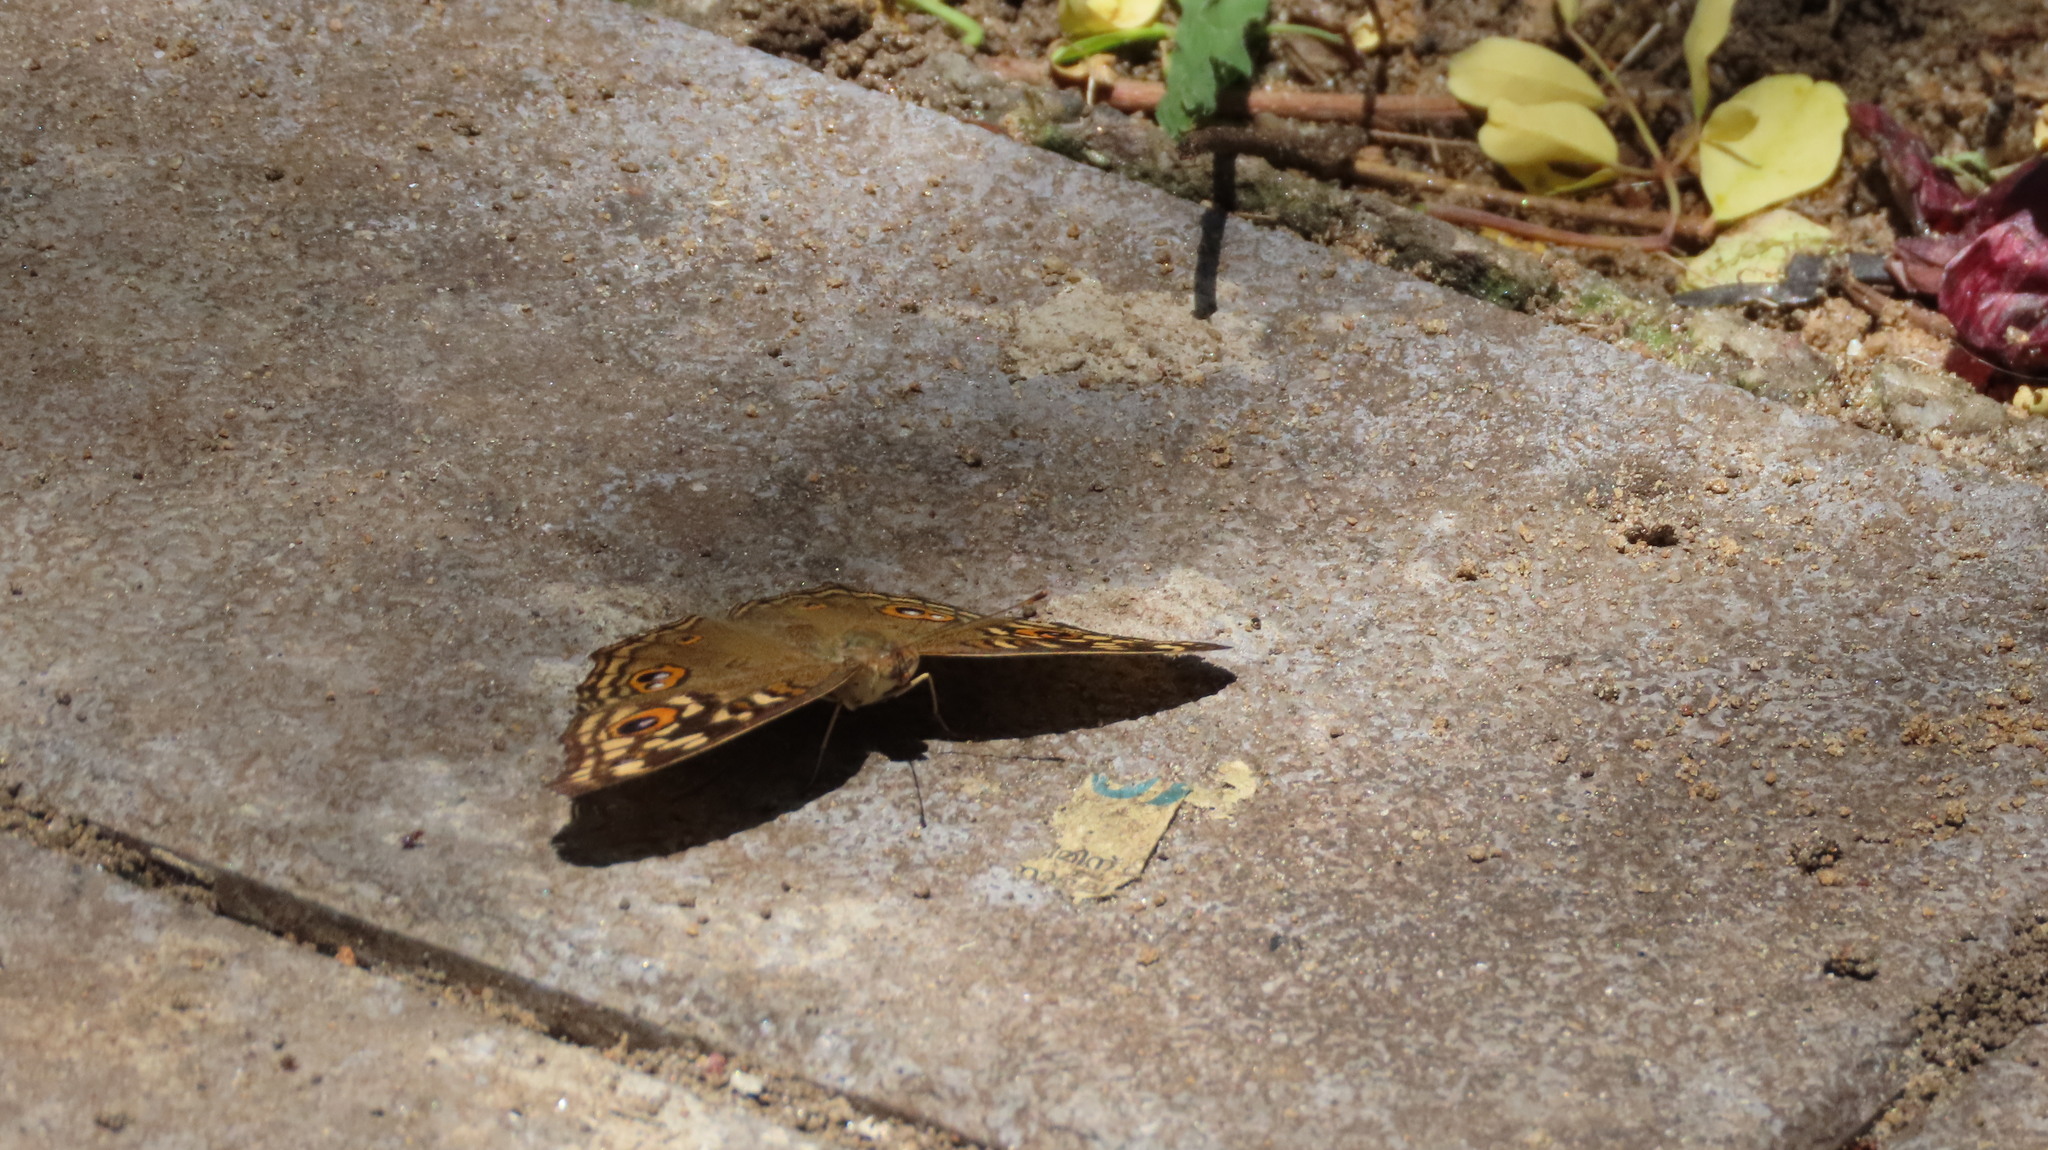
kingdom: Animalia
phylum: Arthropoda
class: Insecta
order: Lepidoptera
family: Nymphalidae
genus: Junonia
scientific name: Junonia lemonias
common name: Lemon pansy
